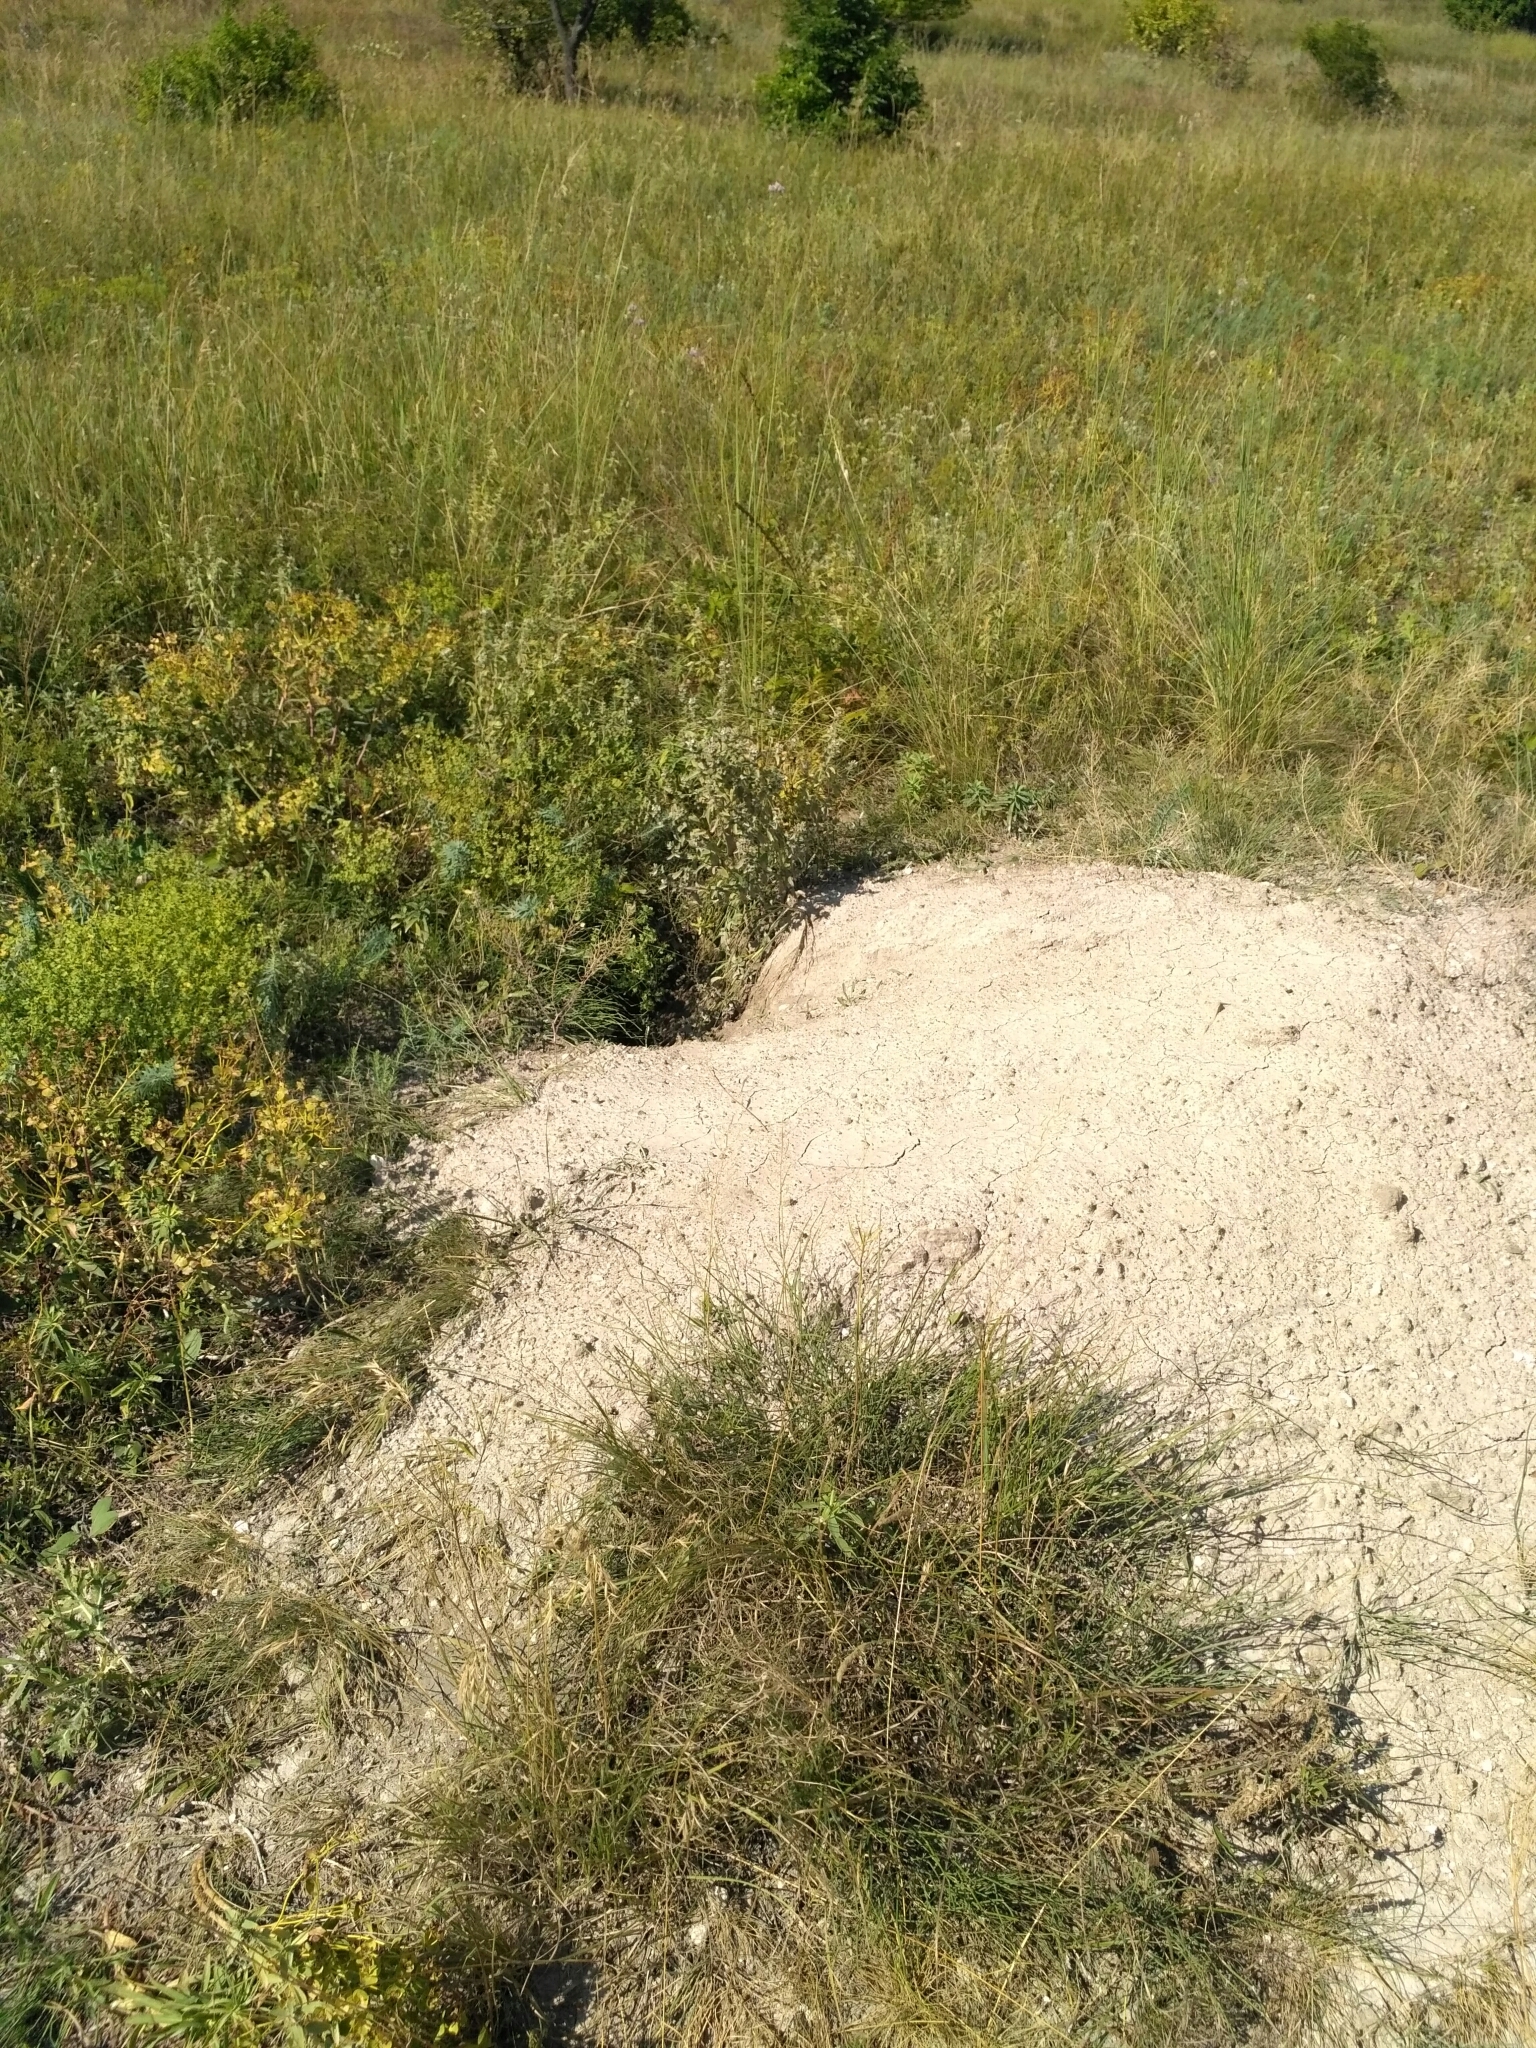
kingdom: Animalia
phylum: Chordata
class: Mammalia
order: Rodentia
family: Sciuridae
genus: Marmota
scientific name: Marmota bobak
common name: Bobak marmot
